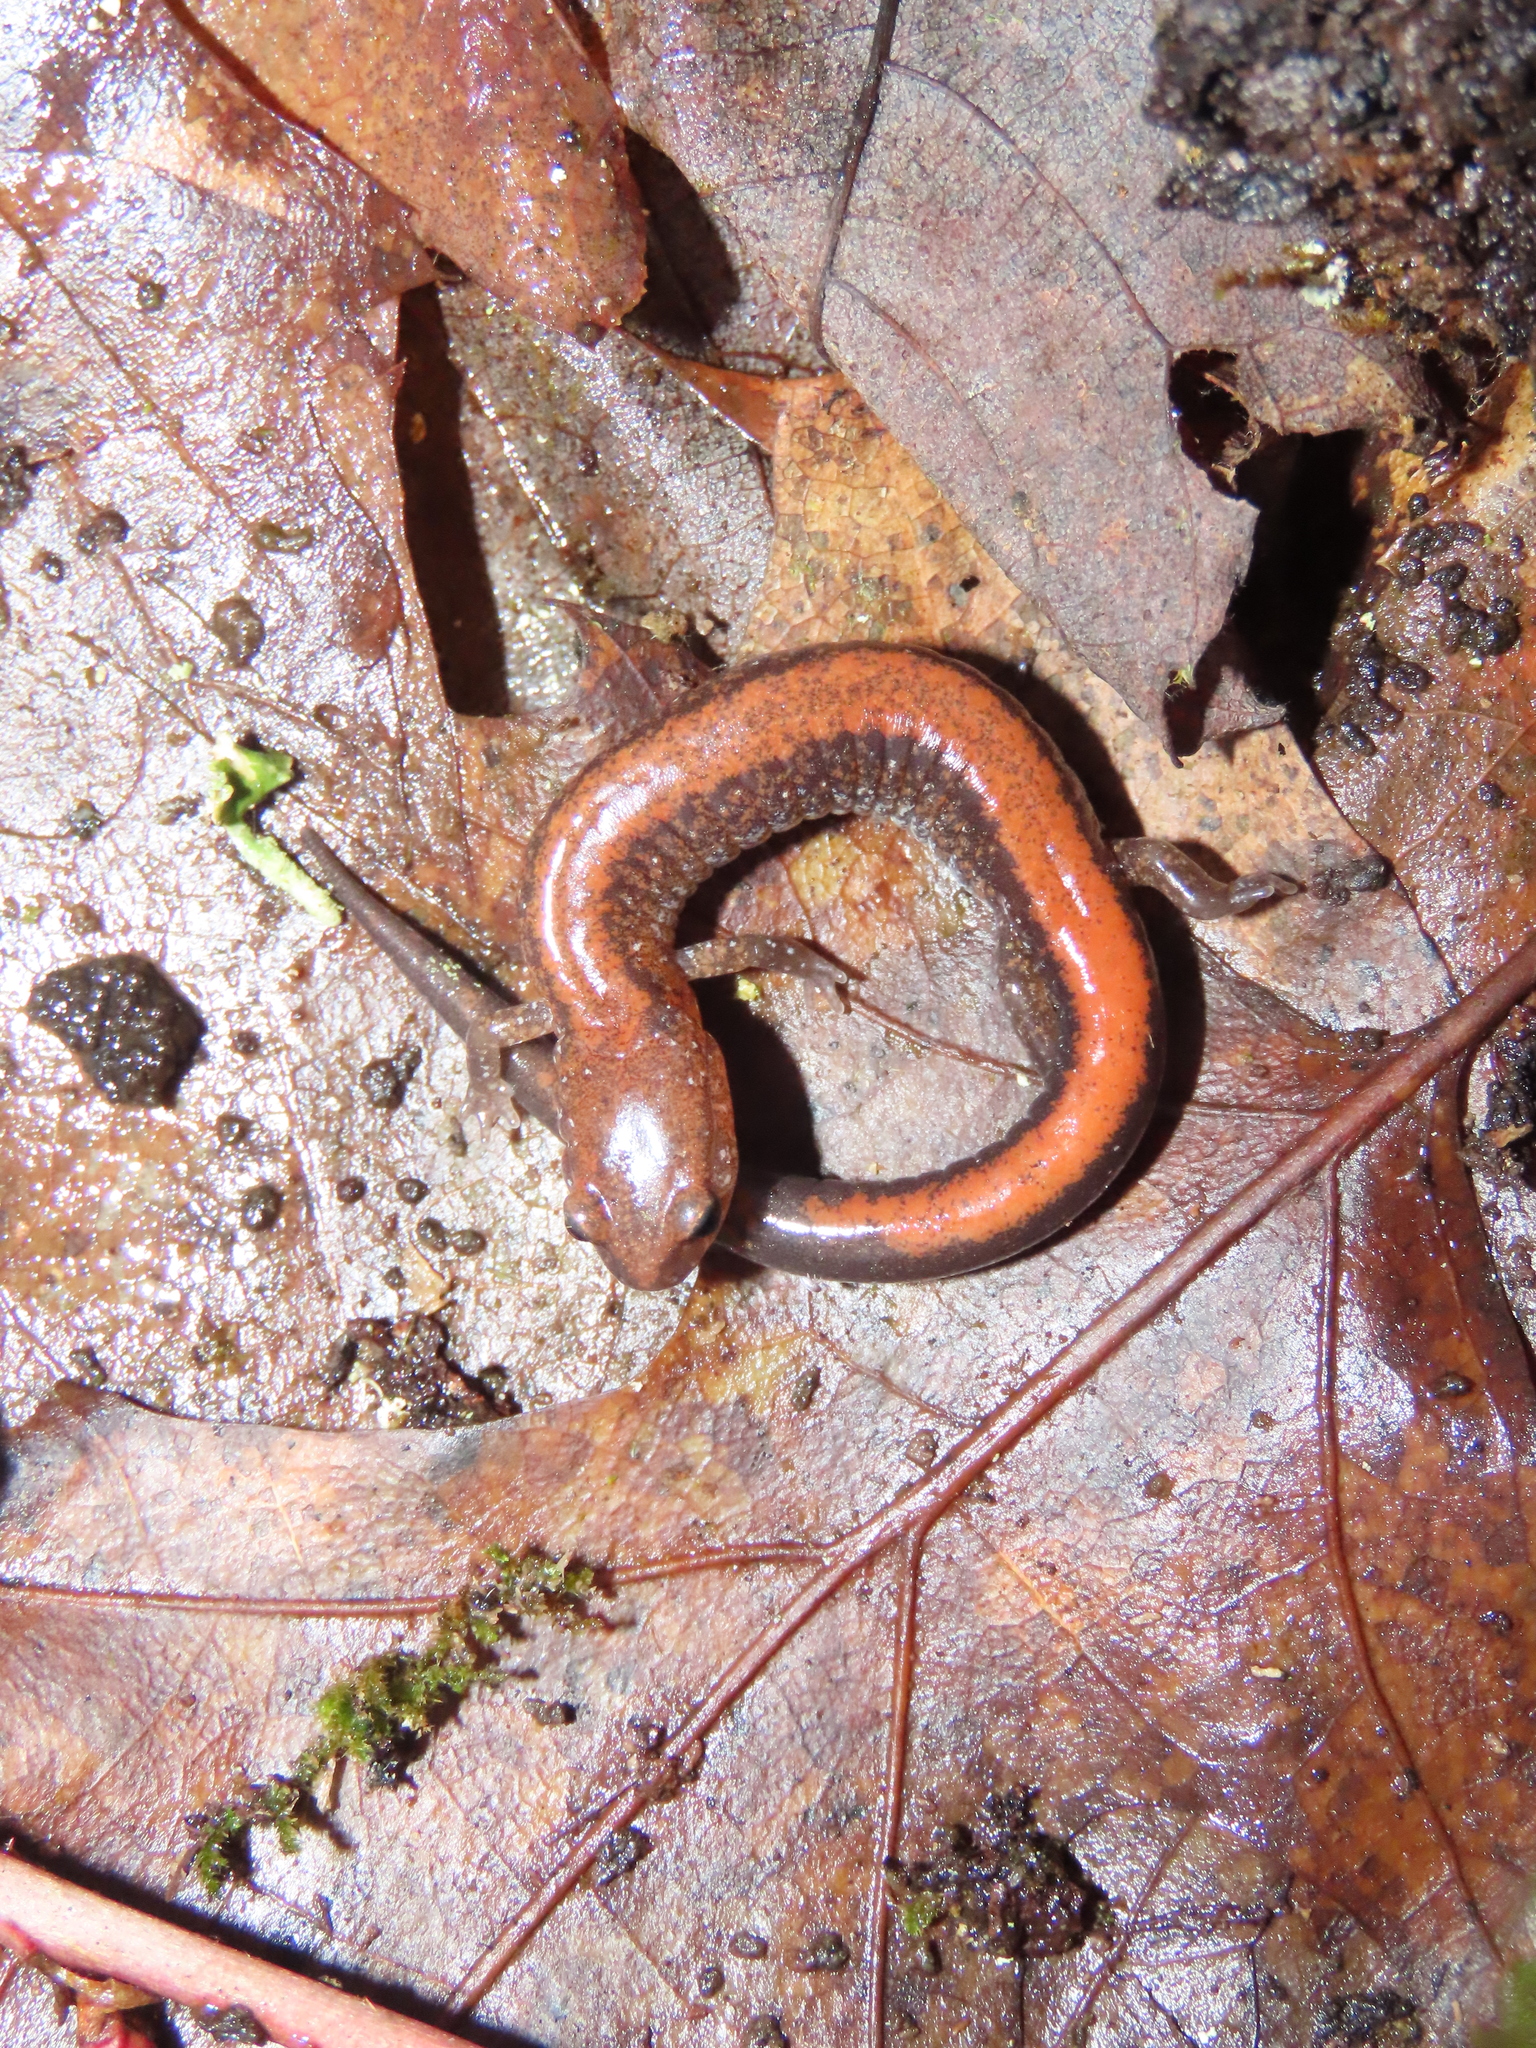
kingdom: Animalia
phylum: Chordata
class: Amphibia
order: Caudata
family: Plethodontidae
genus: Plethodon
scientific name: Plethodon cinereus
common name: Redback salamander
